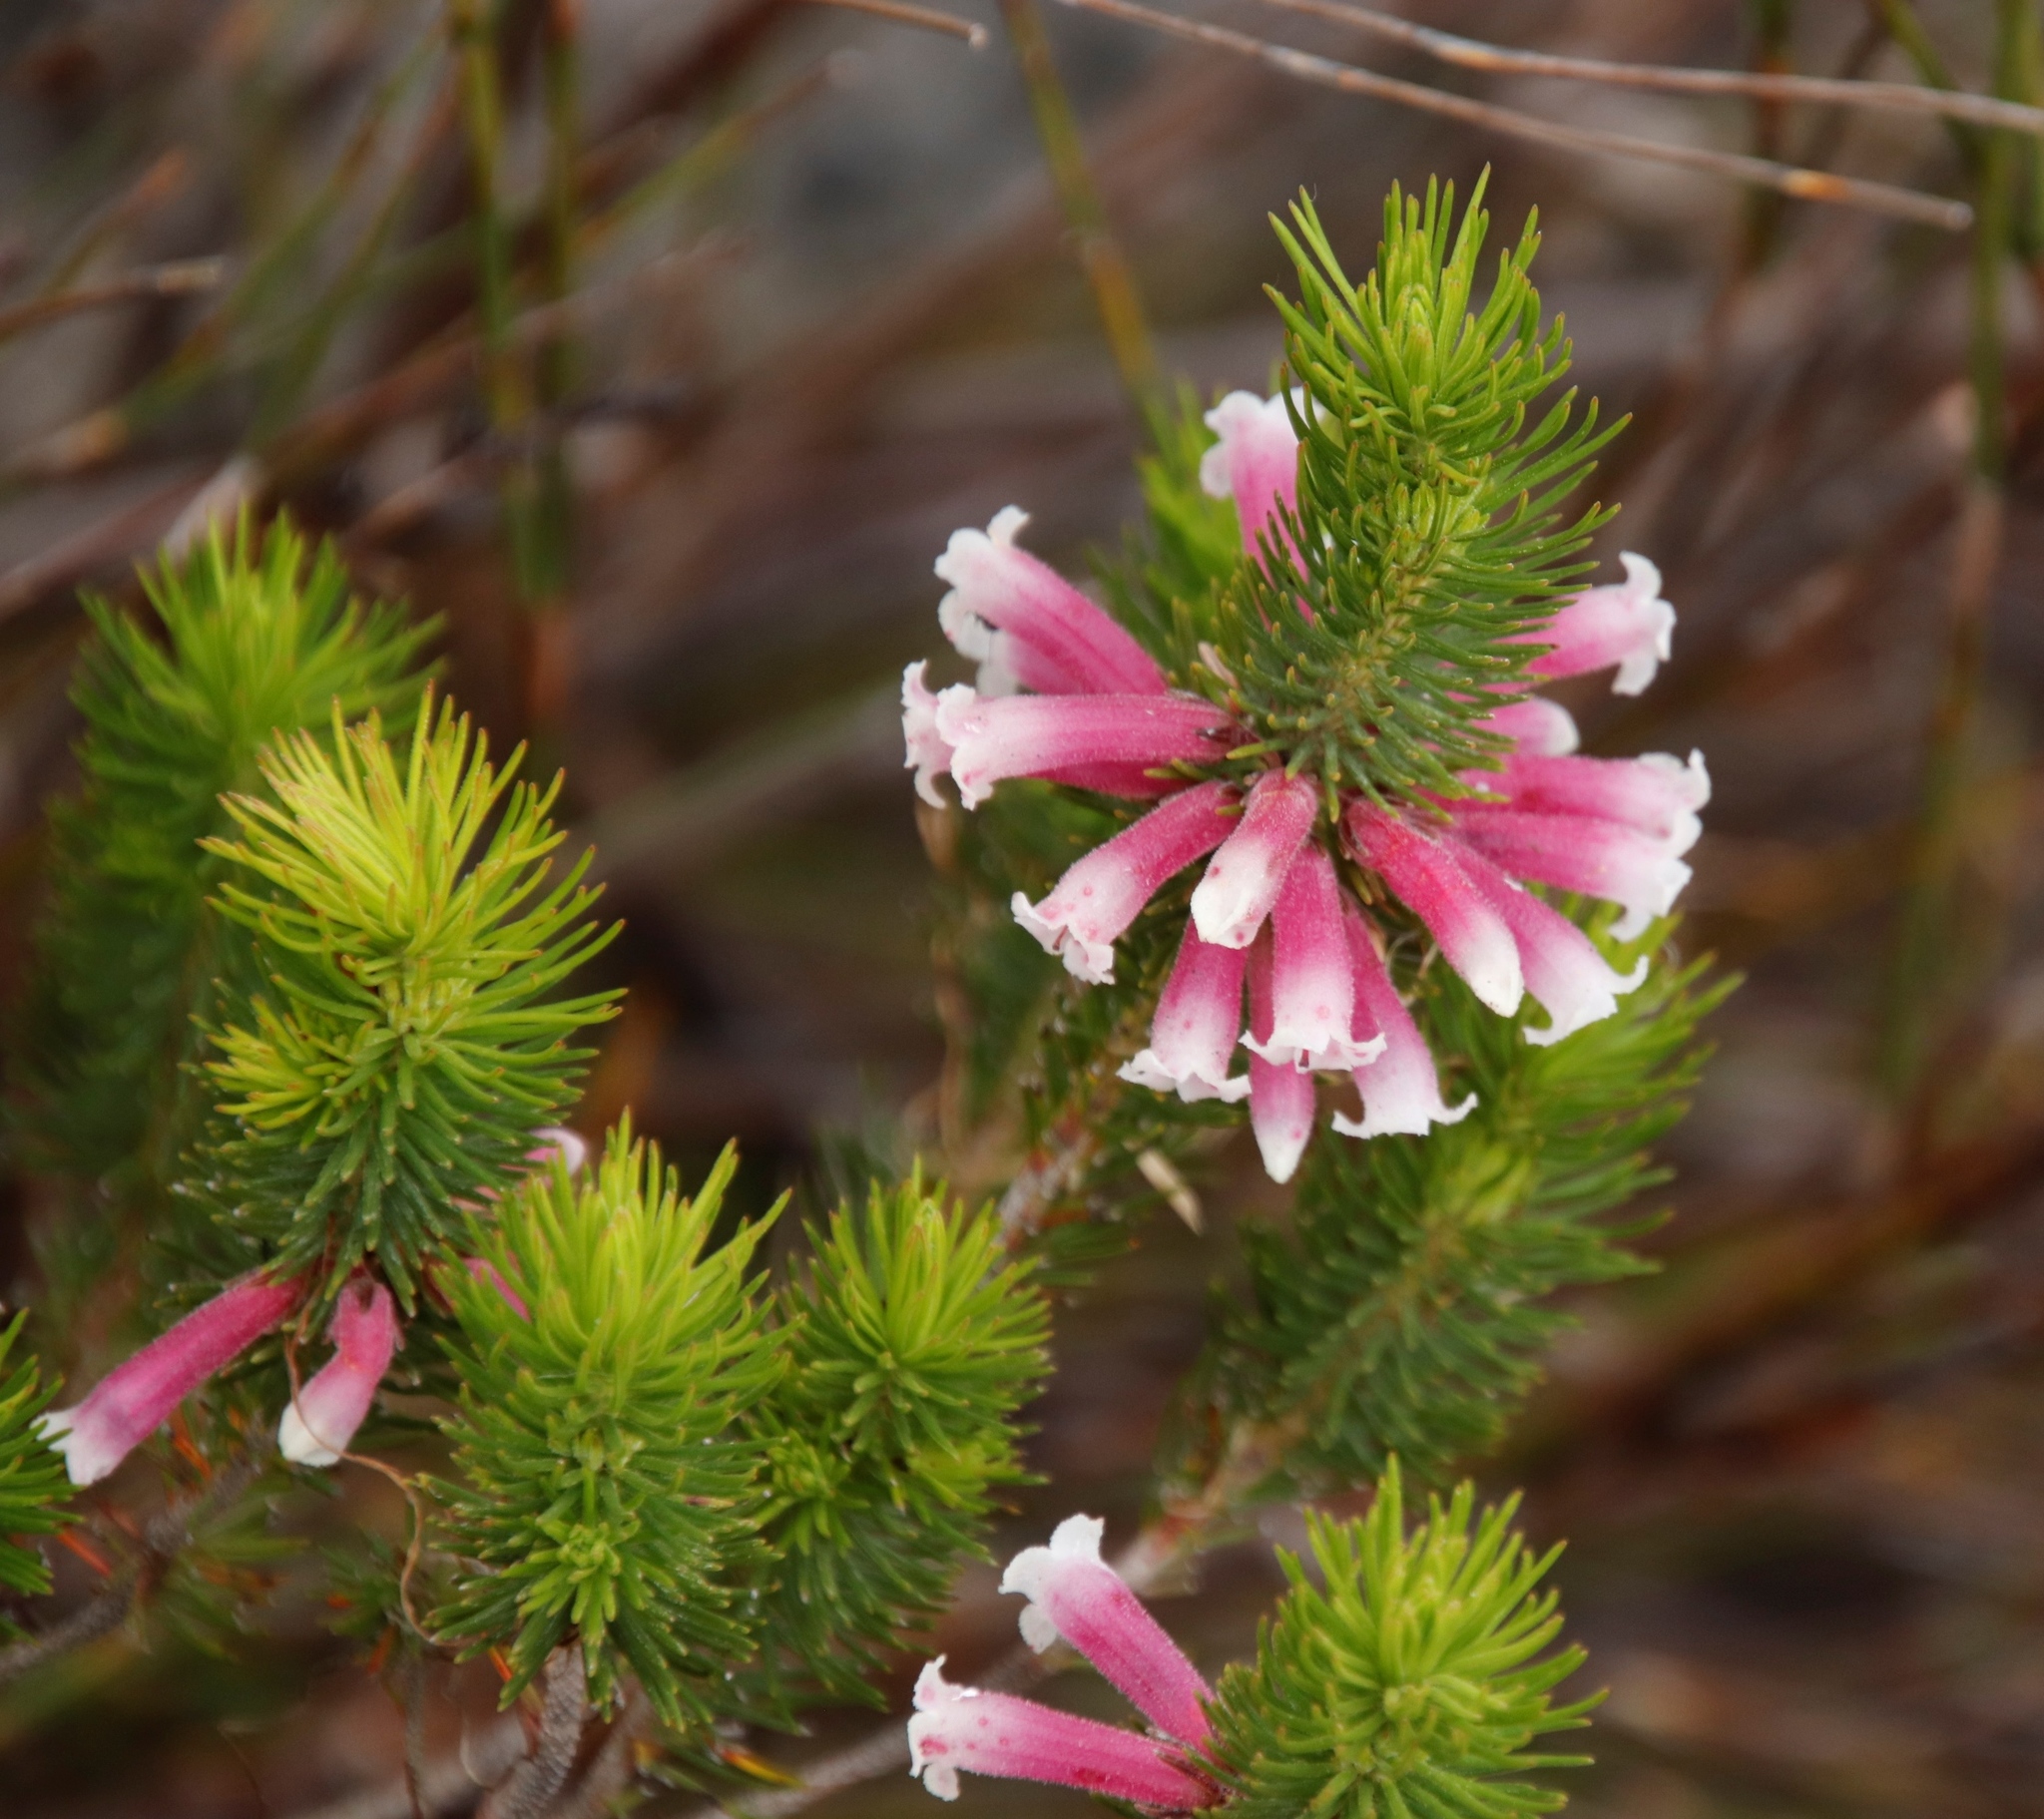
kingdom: Plantae
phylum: Tracheophyta
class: Magnoliopsida
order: Ericales
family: Ericaceae
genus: Erica
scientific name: Erica viscaria
